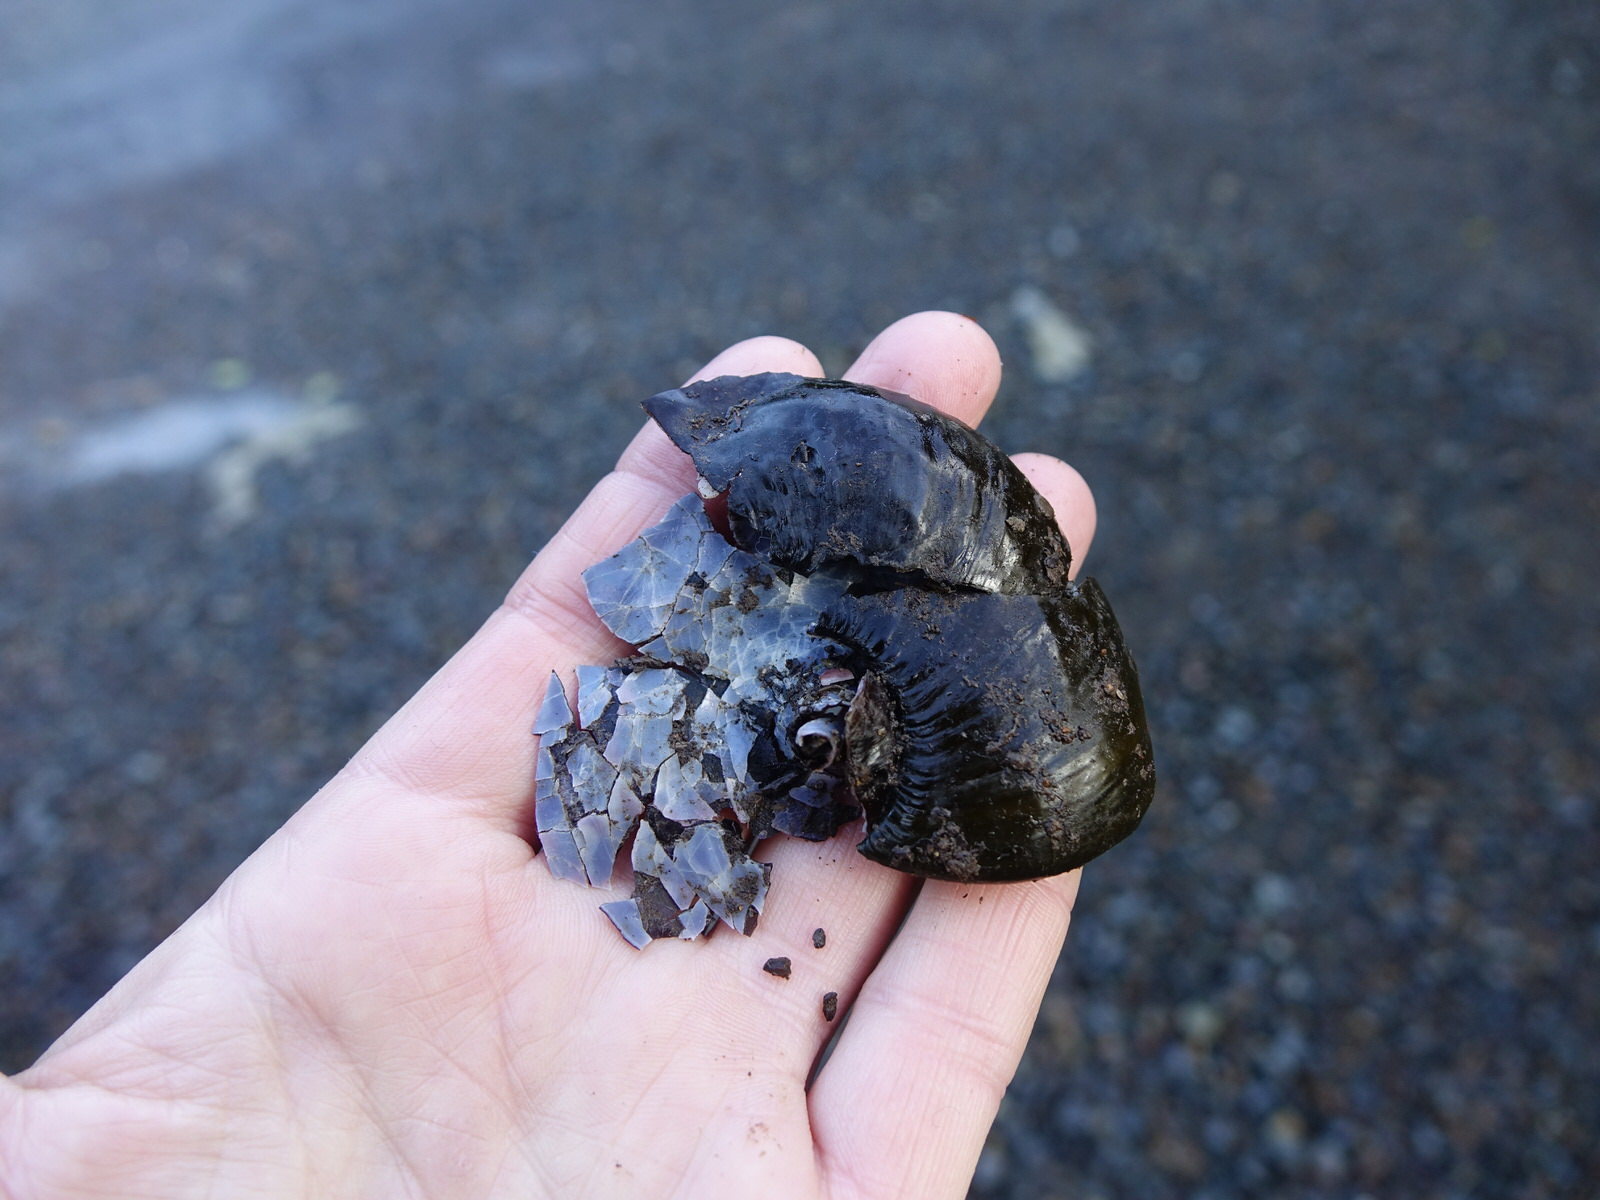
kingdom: Animalia
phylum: Mollusca
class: Gastropoda
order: Stylommatophora
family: Rhytididae
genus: Paryphanta
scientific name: Paryphanta busbyi
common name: Kauri snail
